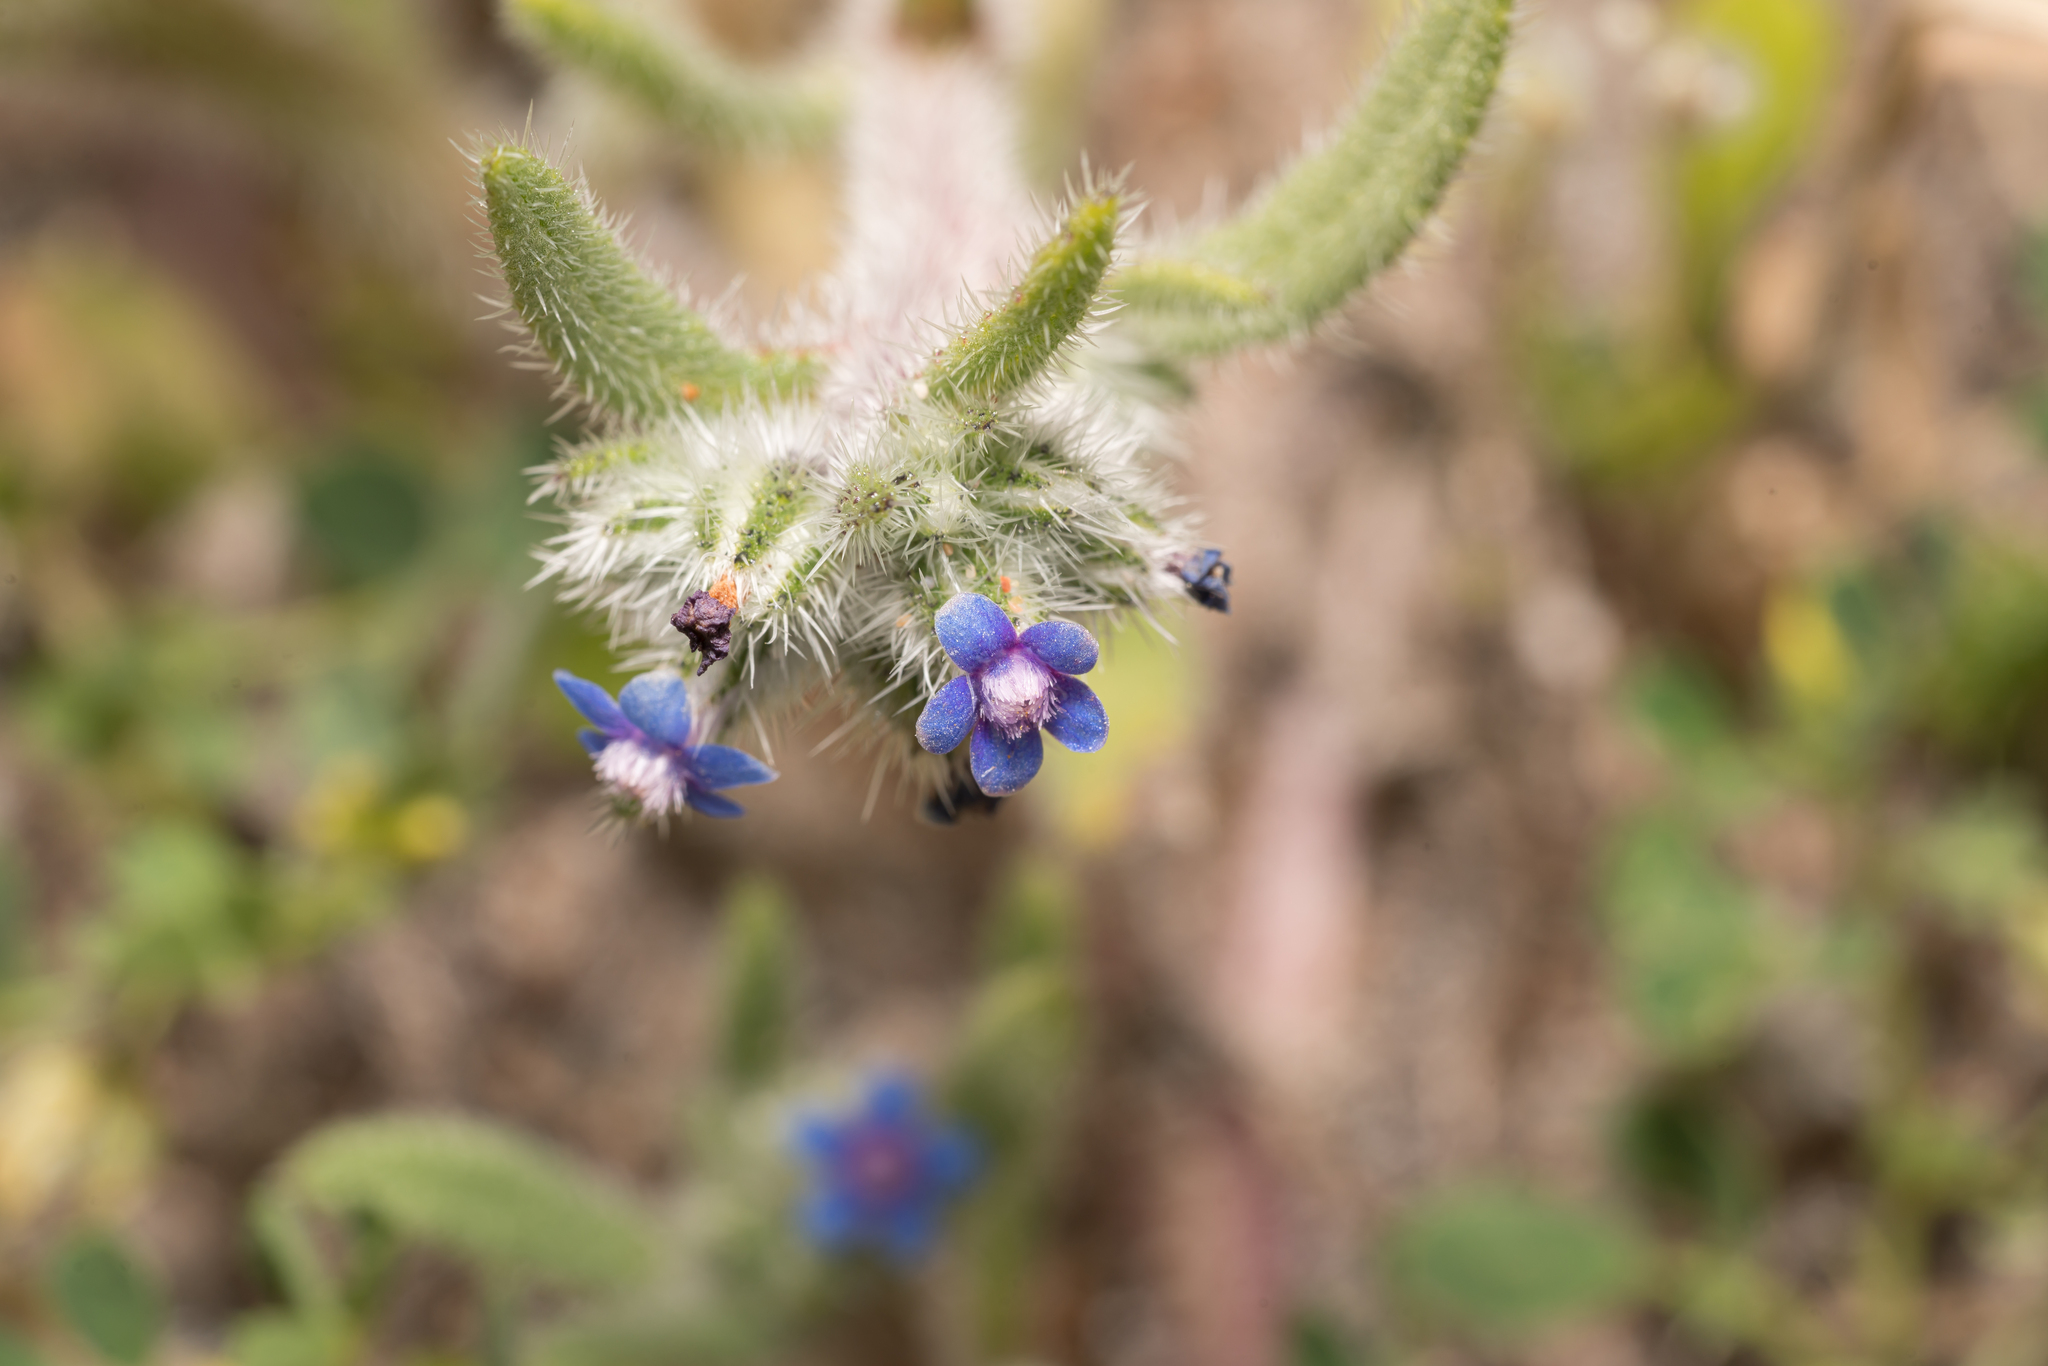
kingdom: Plantae
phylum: Tracheophyta
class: Magnoliopsida
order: Boraginales
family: Boraginaceae
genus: Hormuzakia
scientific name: Hormuzakia aggregata
